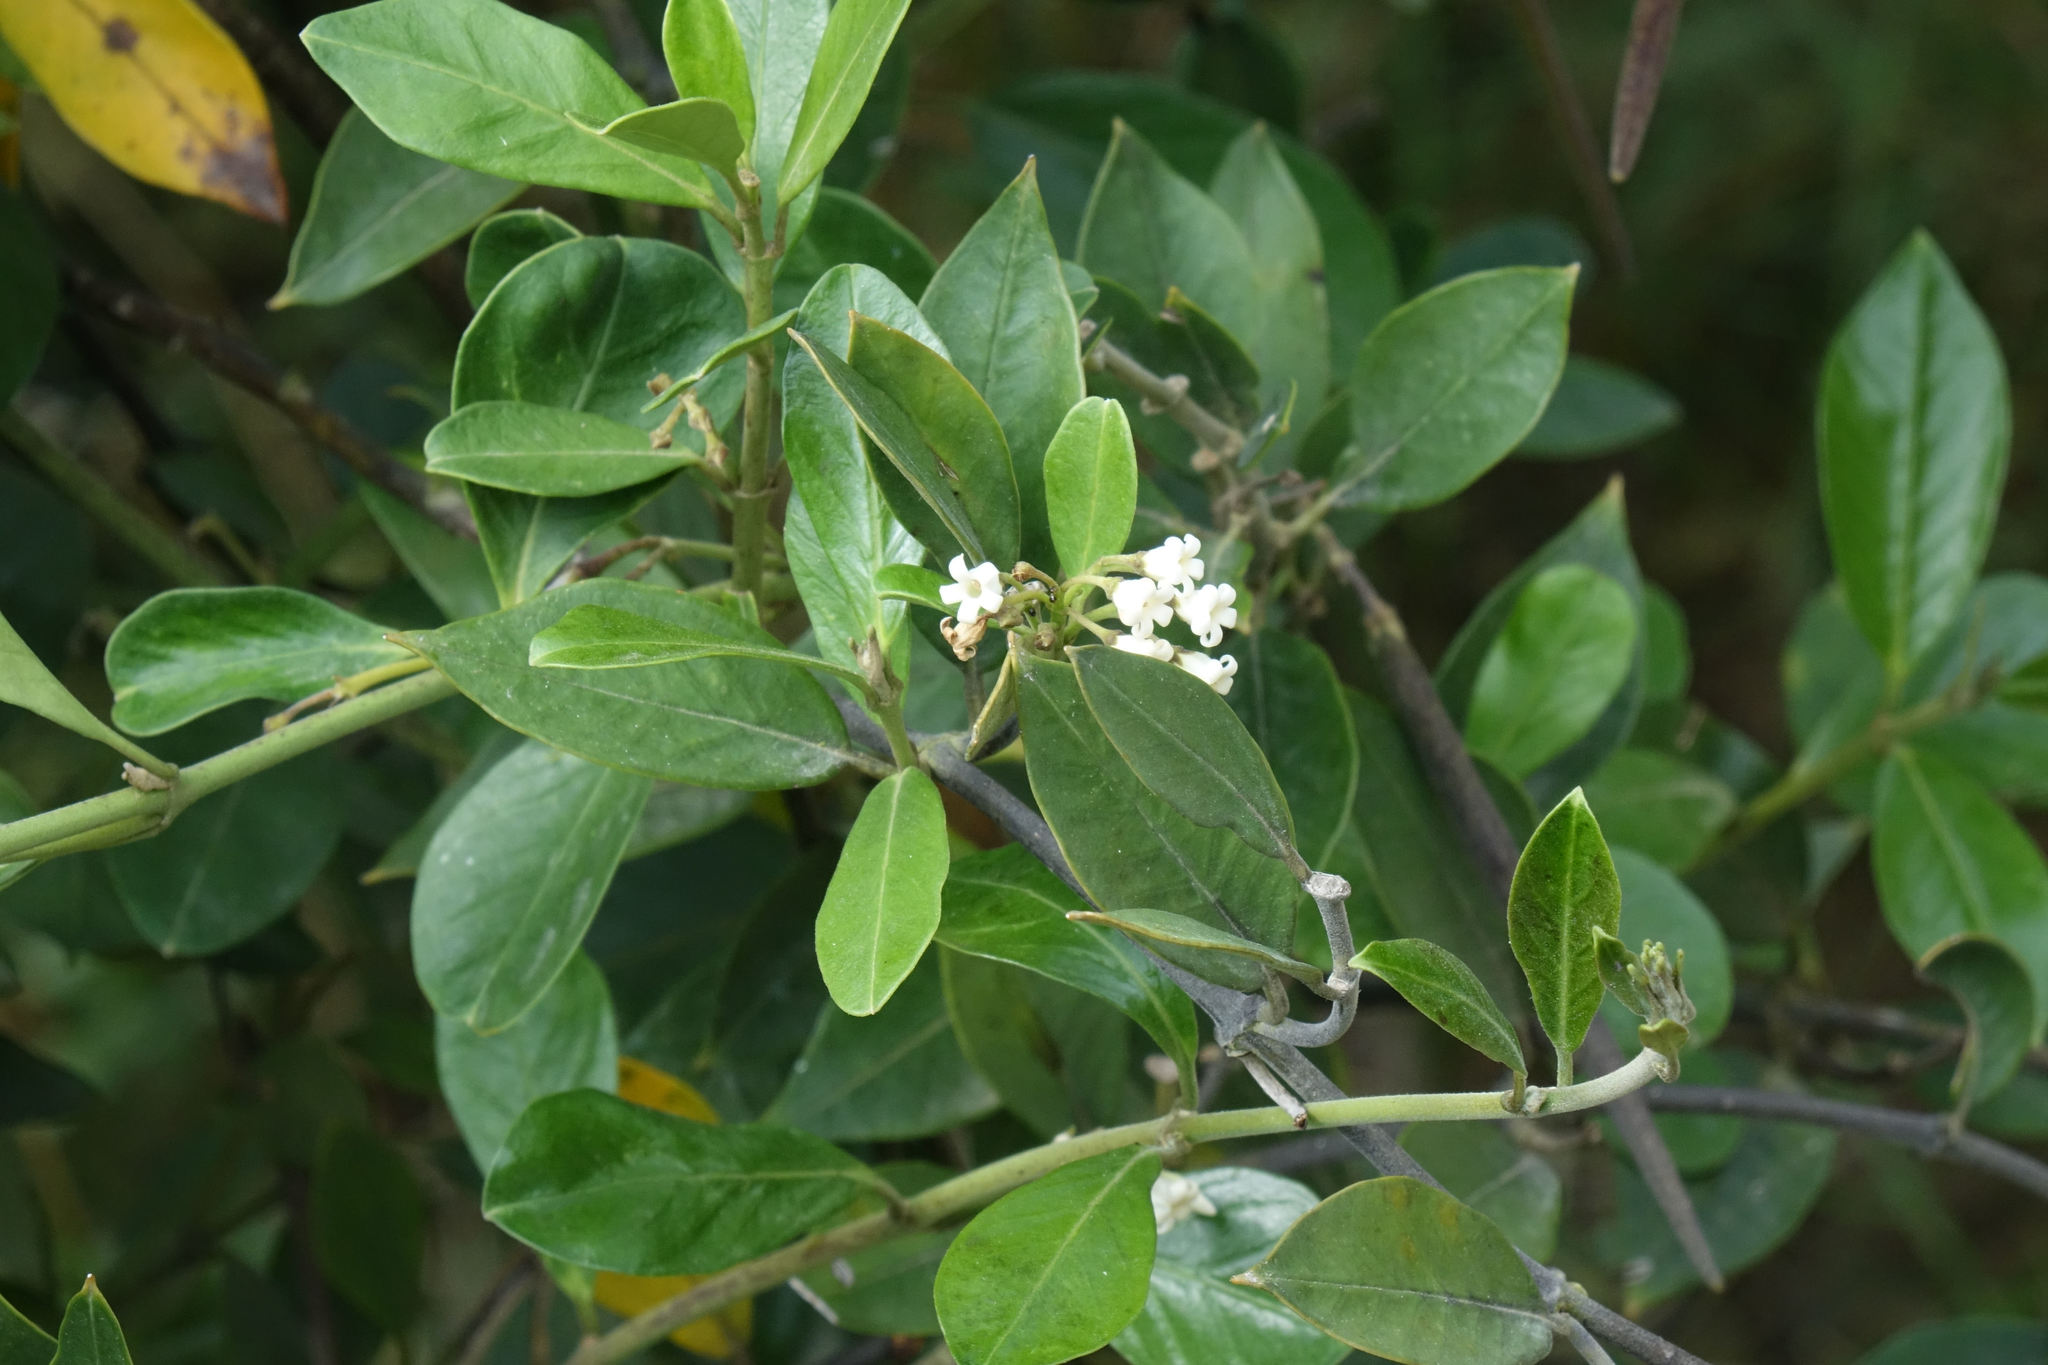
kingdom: Plantae
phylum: Tracheophyta
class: Magnoliopsida
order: Gentianales
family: Apocynaceae
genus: Parsonsia
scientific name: Parsonsia heterophylla
